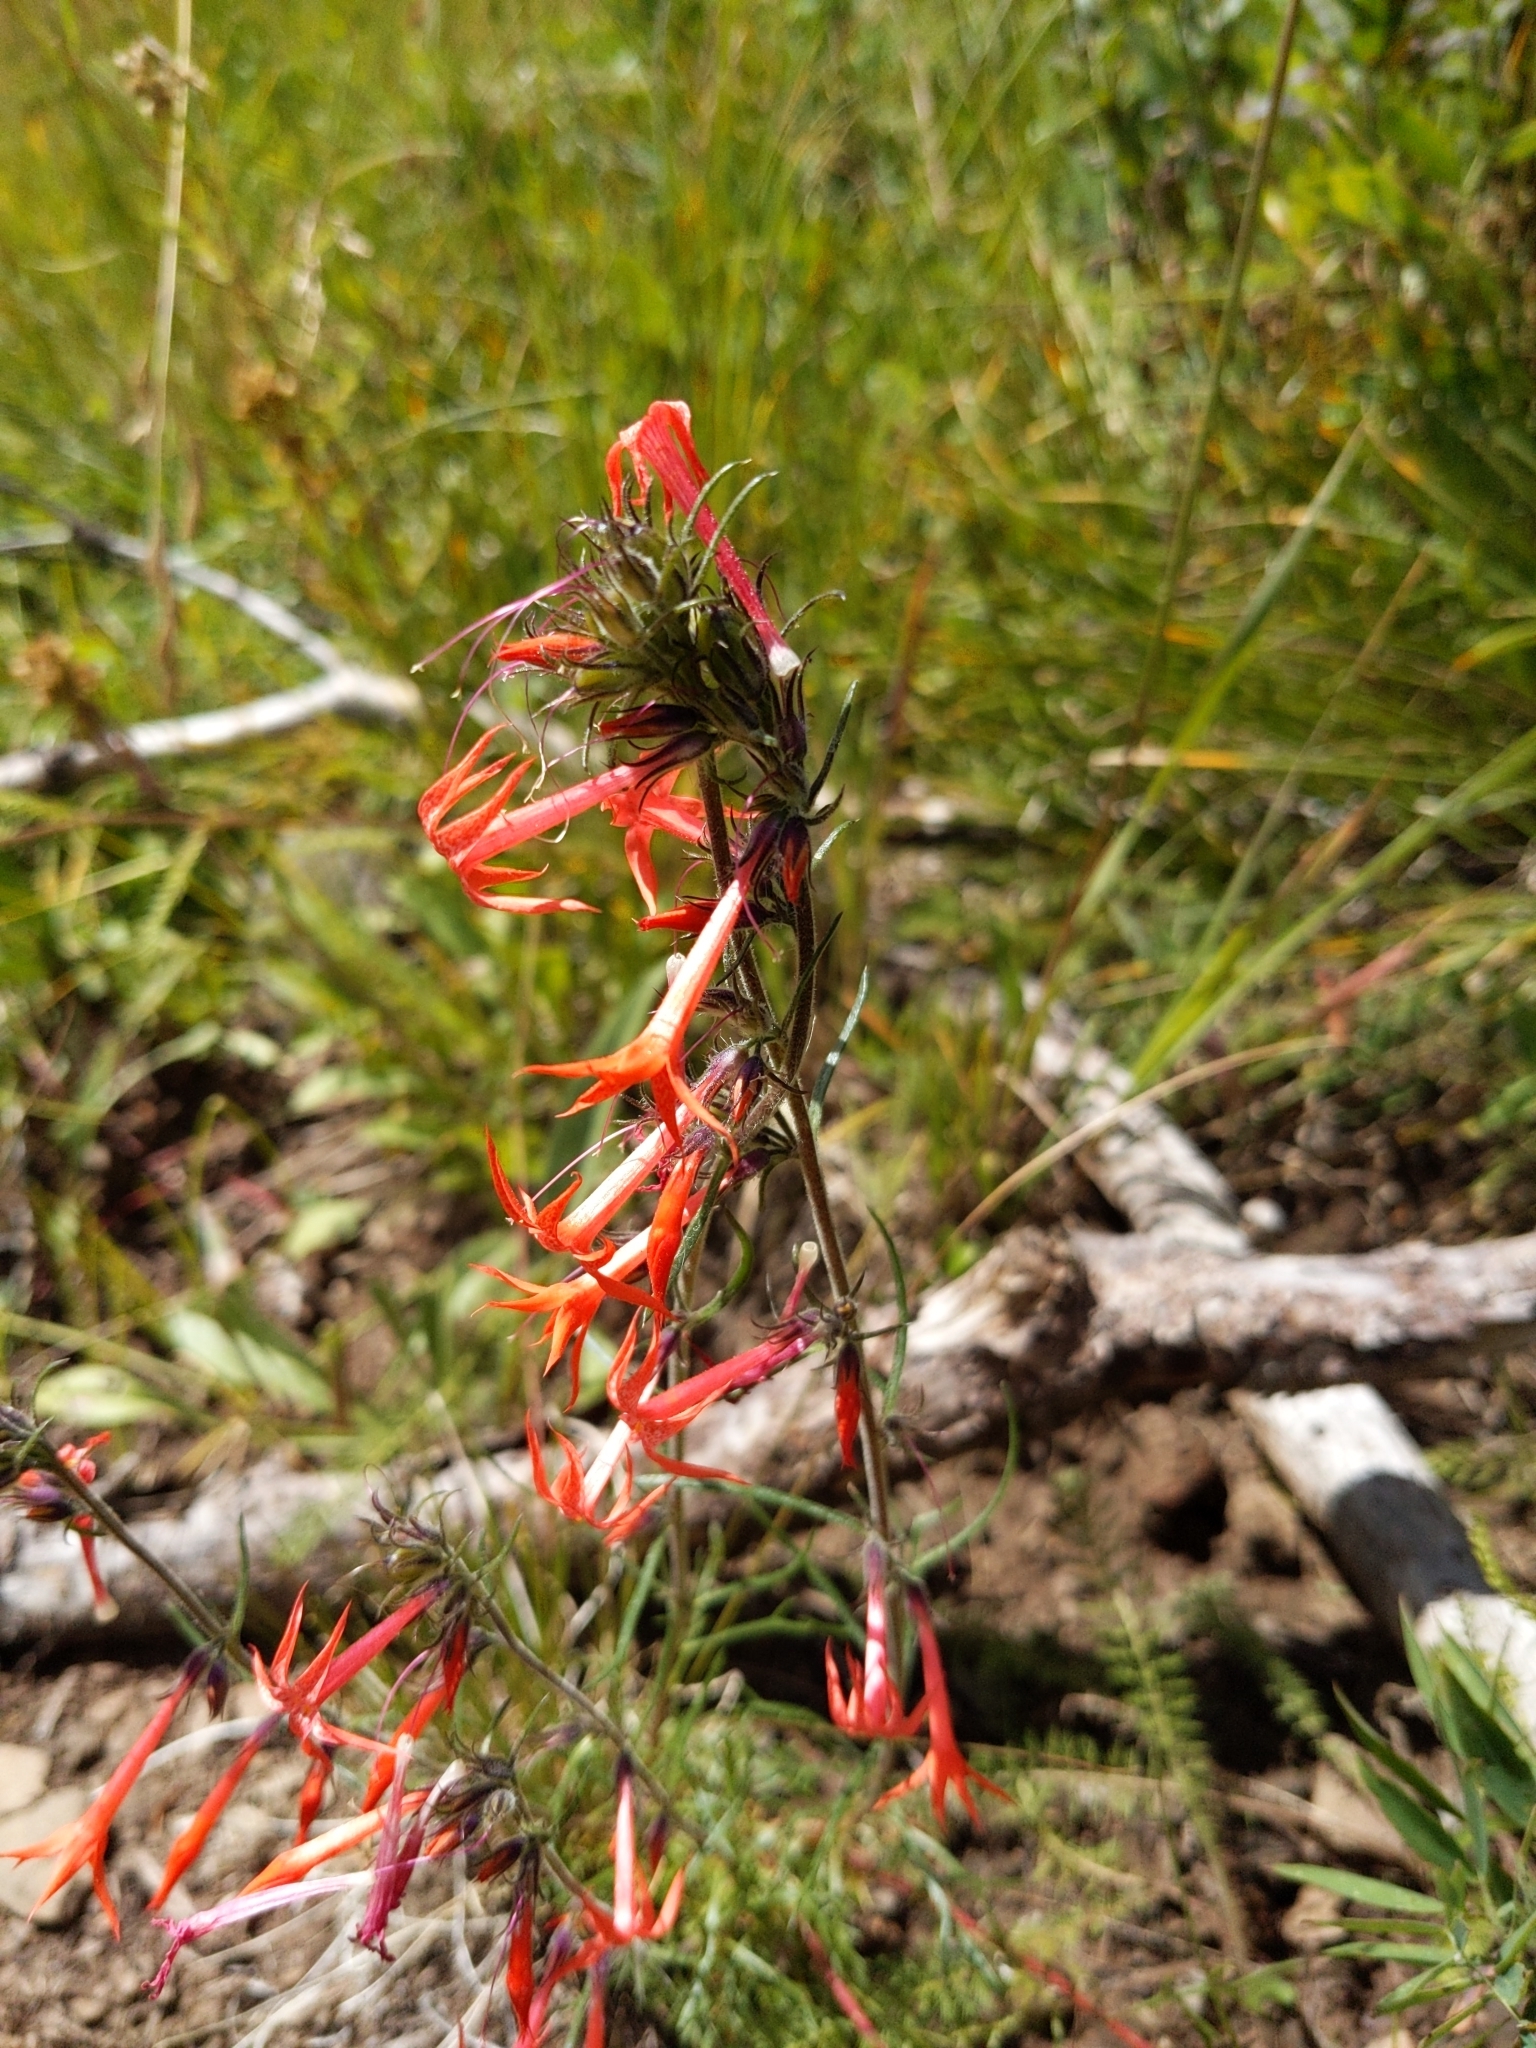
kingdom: Plantae
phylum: Tracheophyta
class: Magnoliopsida
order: Ericales
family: Polemoniaceae
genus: Ipomopsis
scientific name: Ipomopsis aggregata
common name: Scarlet gilia
